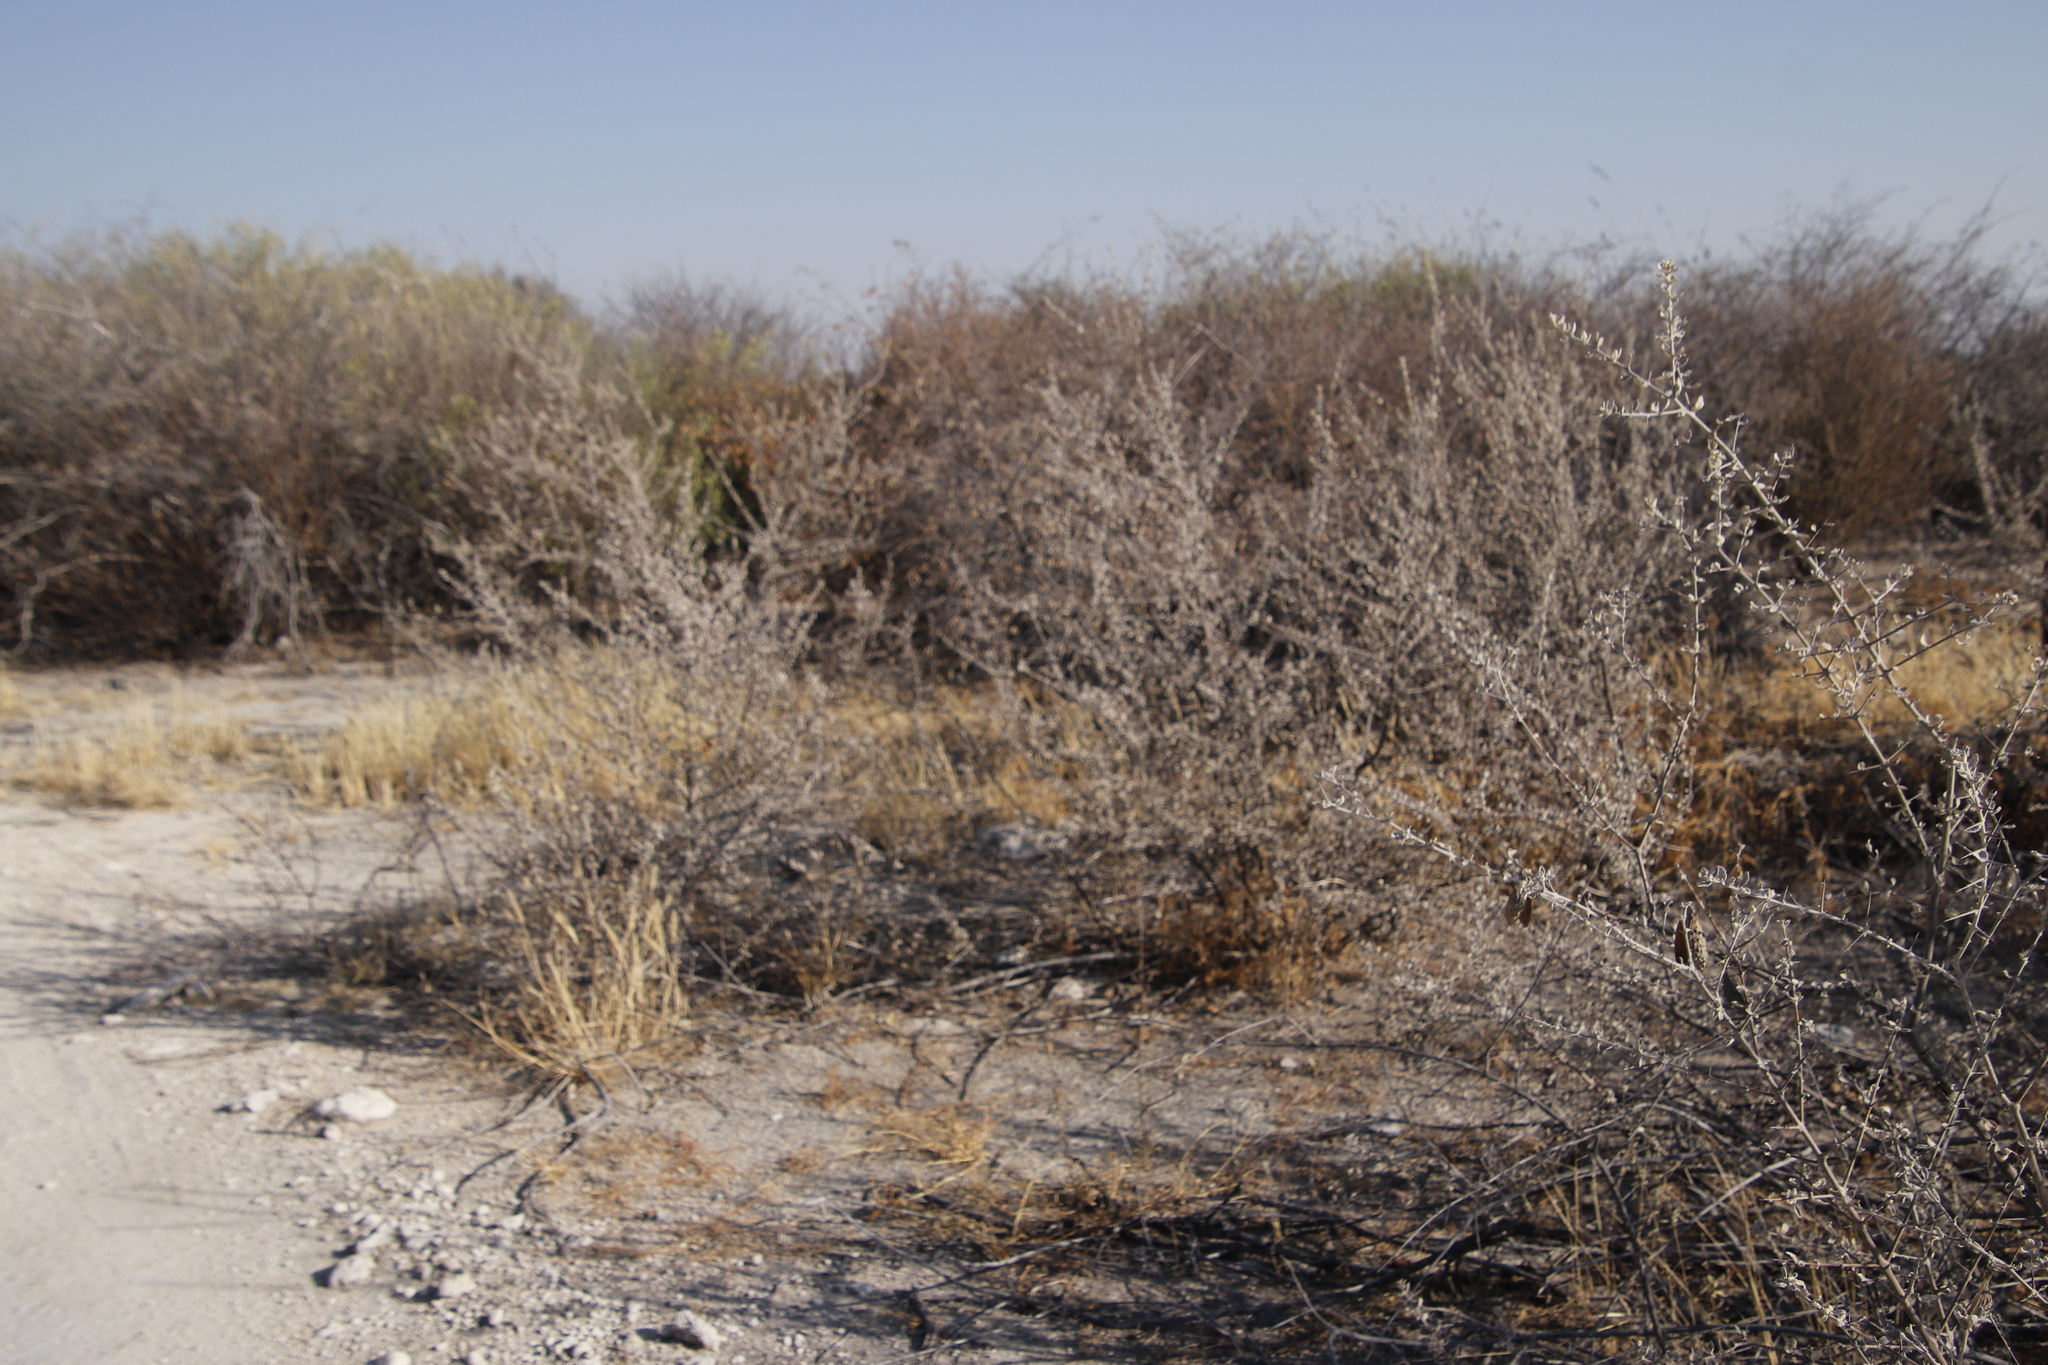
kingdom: Plantae
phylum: Tracheophyta
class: Magnoliopsida
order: Lamiales
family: Bignoniaceae
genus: Catophractes
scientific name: Catophractes alexandri
